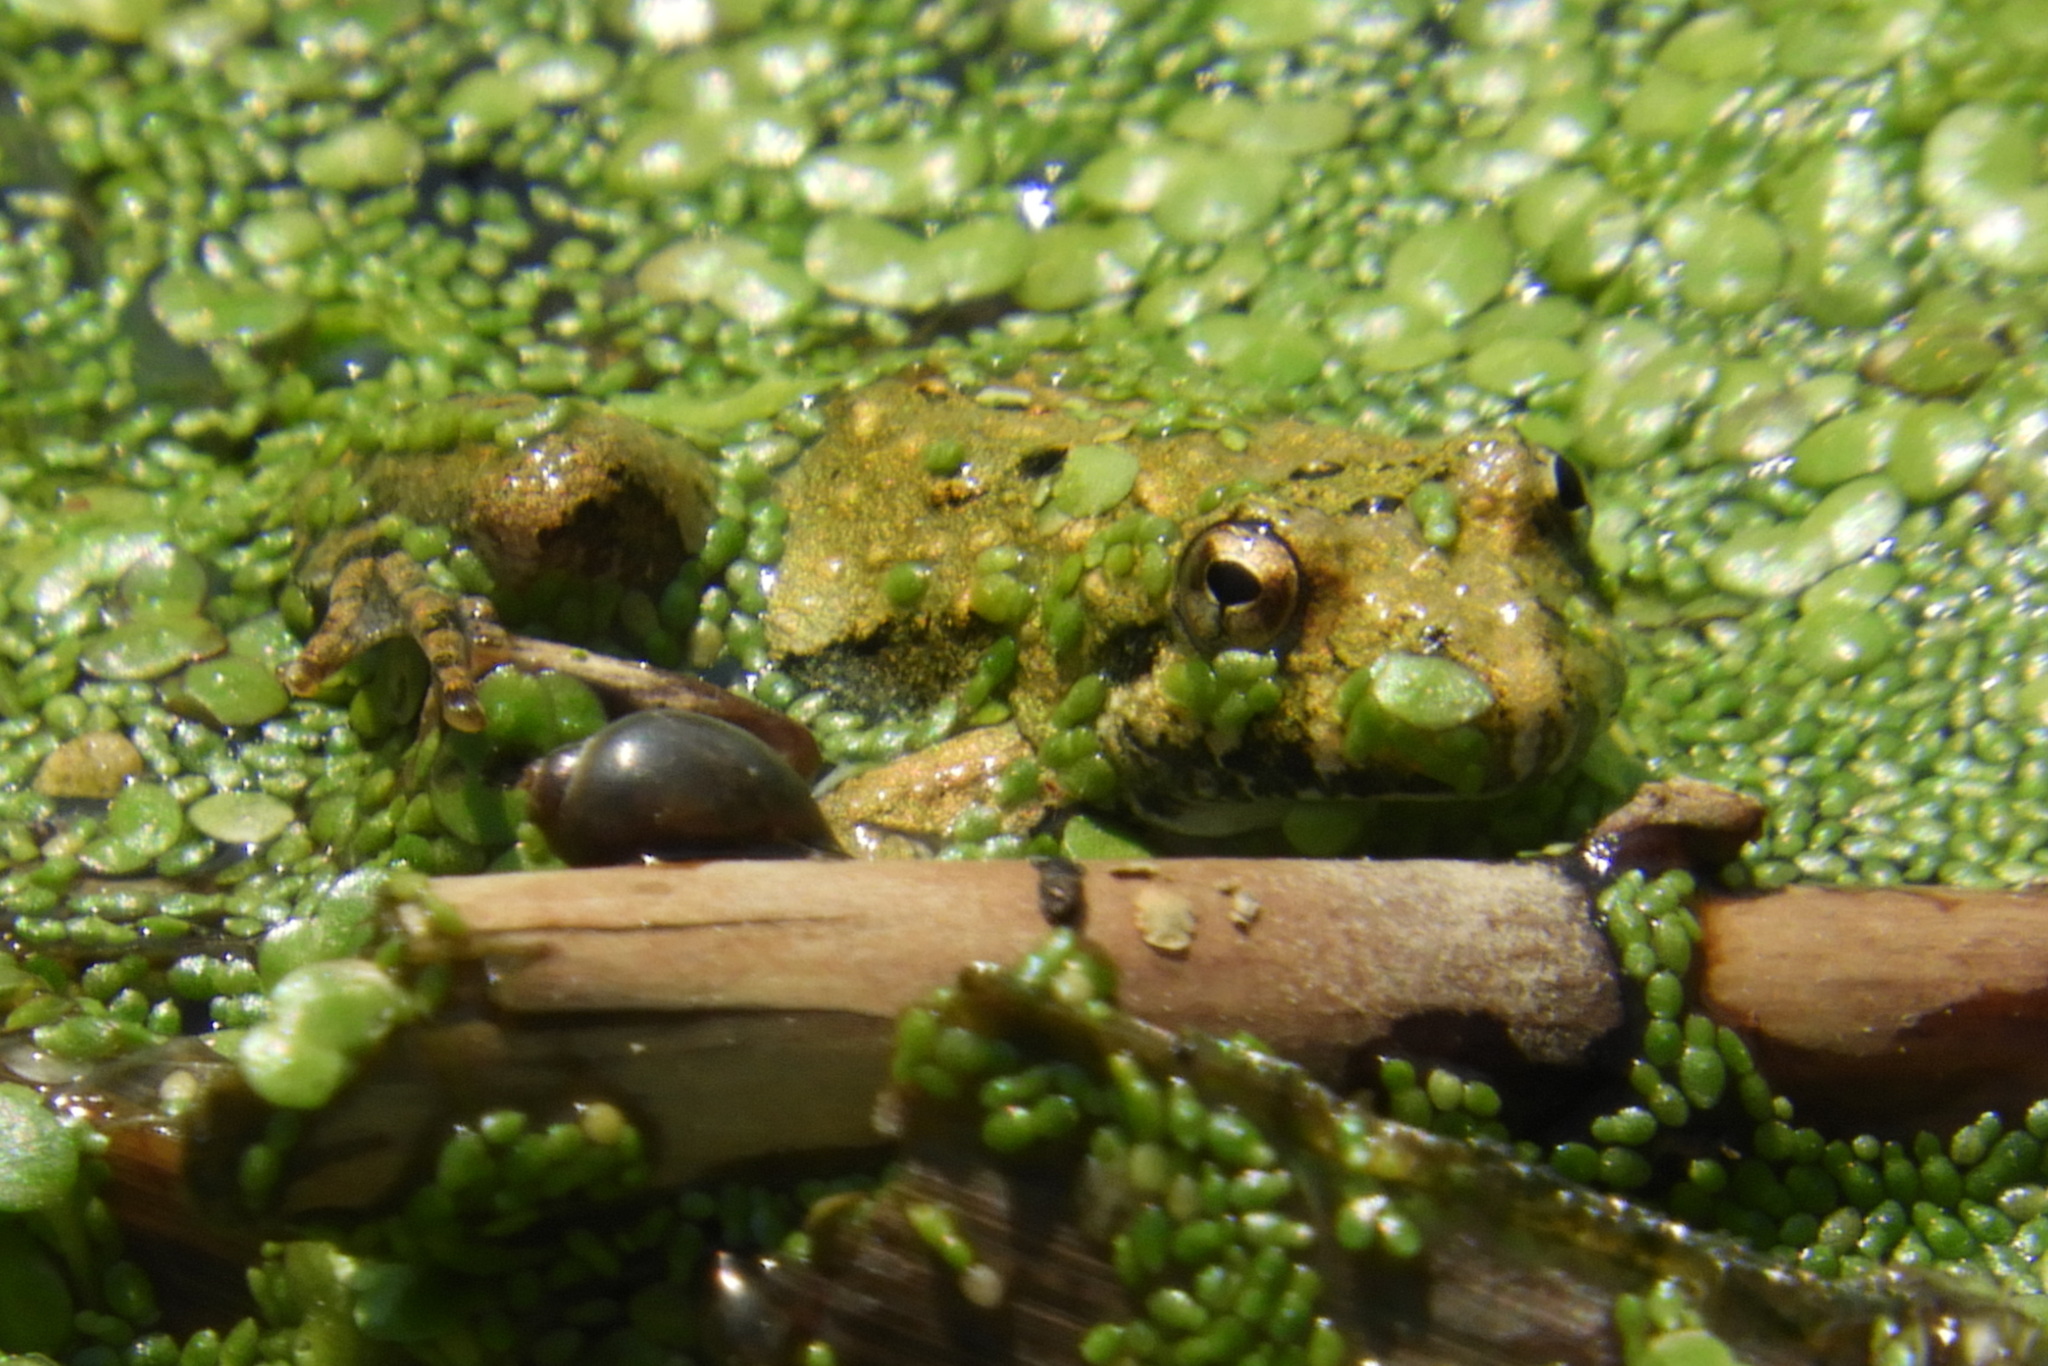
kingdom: Animalia
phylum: Chordata
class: Amphibia
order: Anura
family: Hylidae
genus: Acris
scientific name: Acris crepitans
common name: Northern cricket frog
